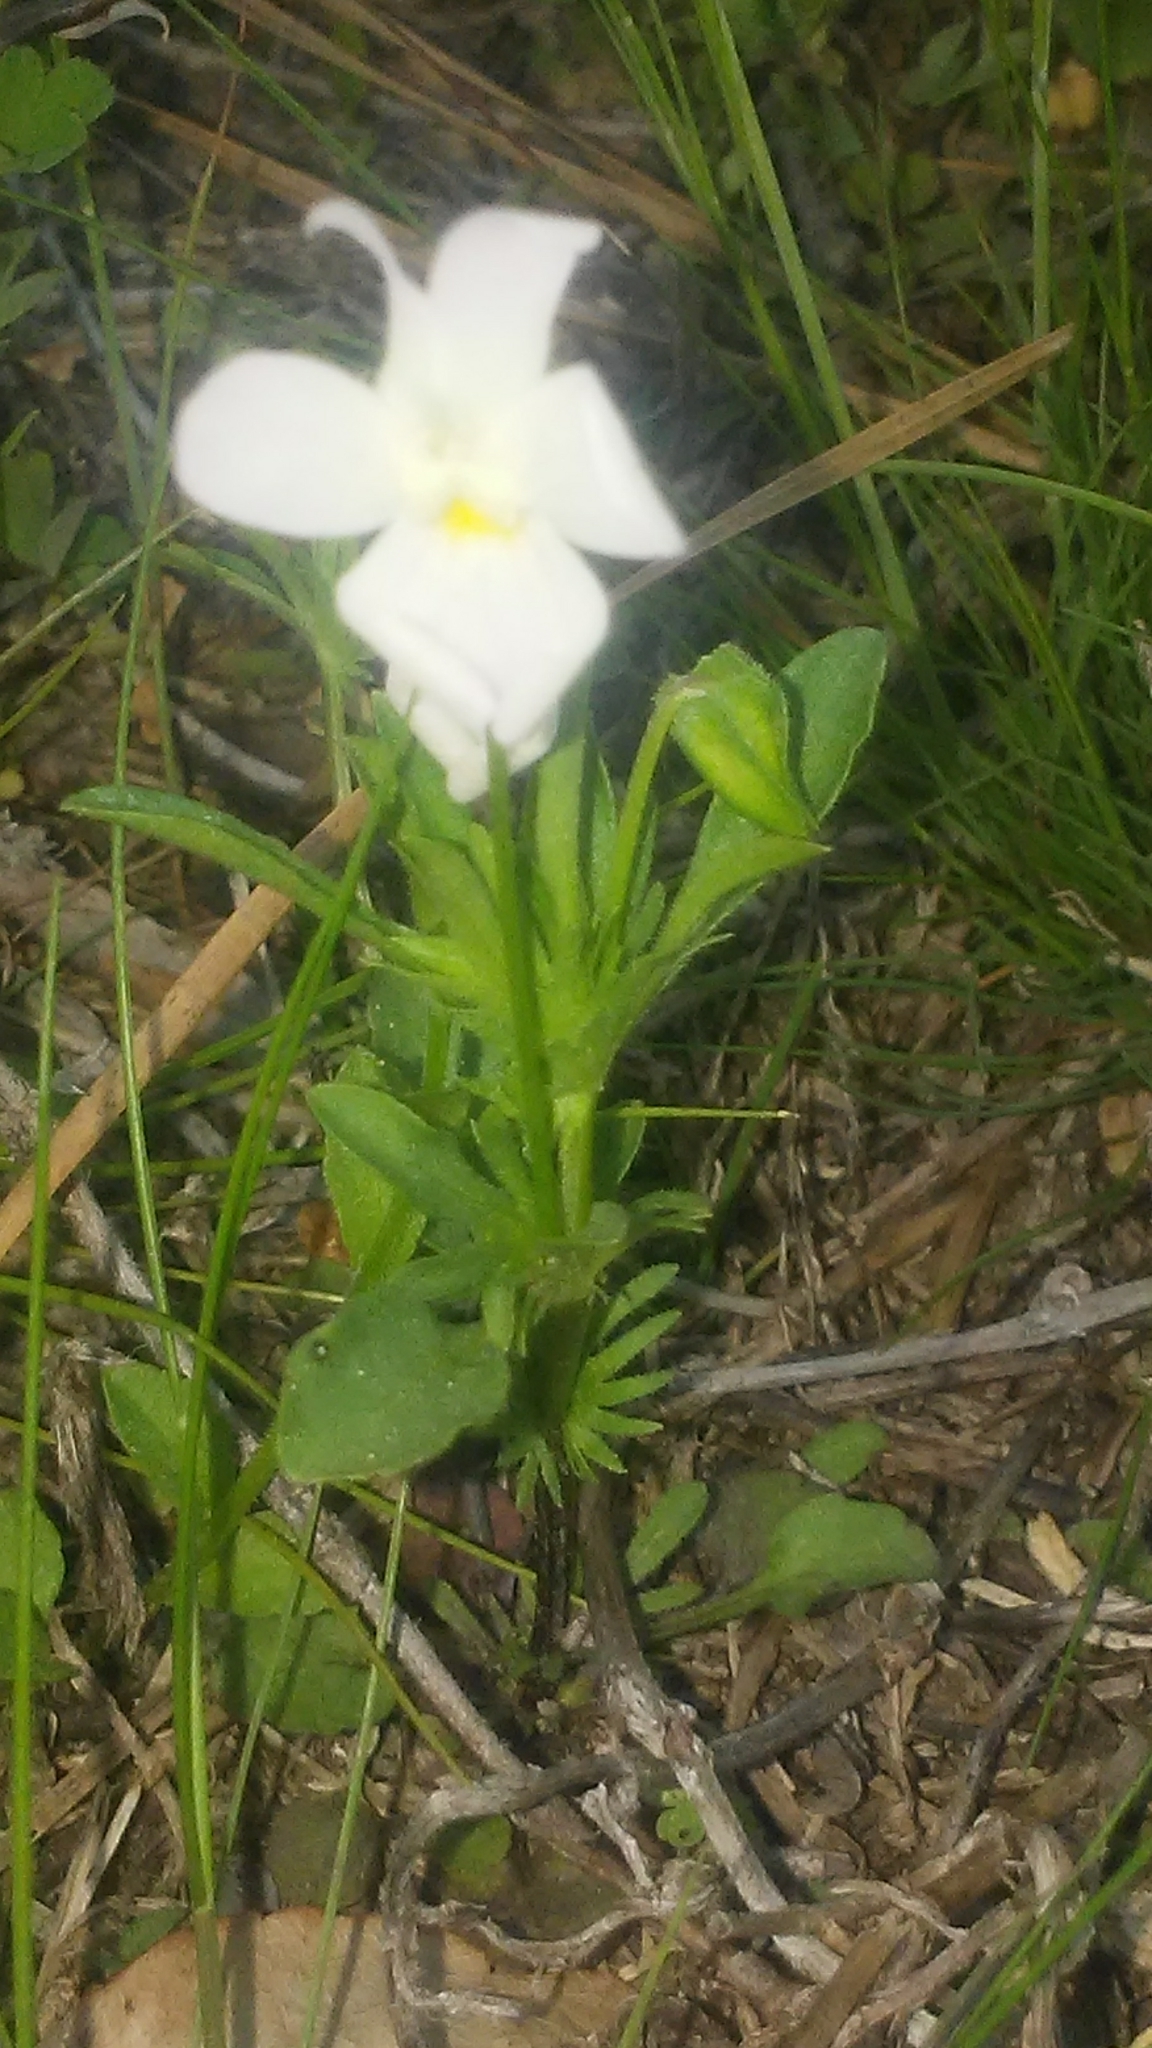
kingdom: Plantae
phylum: Tracheophyta
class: Magnoliopsida
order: Malpighiales
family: Violaceae
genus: Viola
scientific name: Viola rafinesquei
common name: American field pansy
